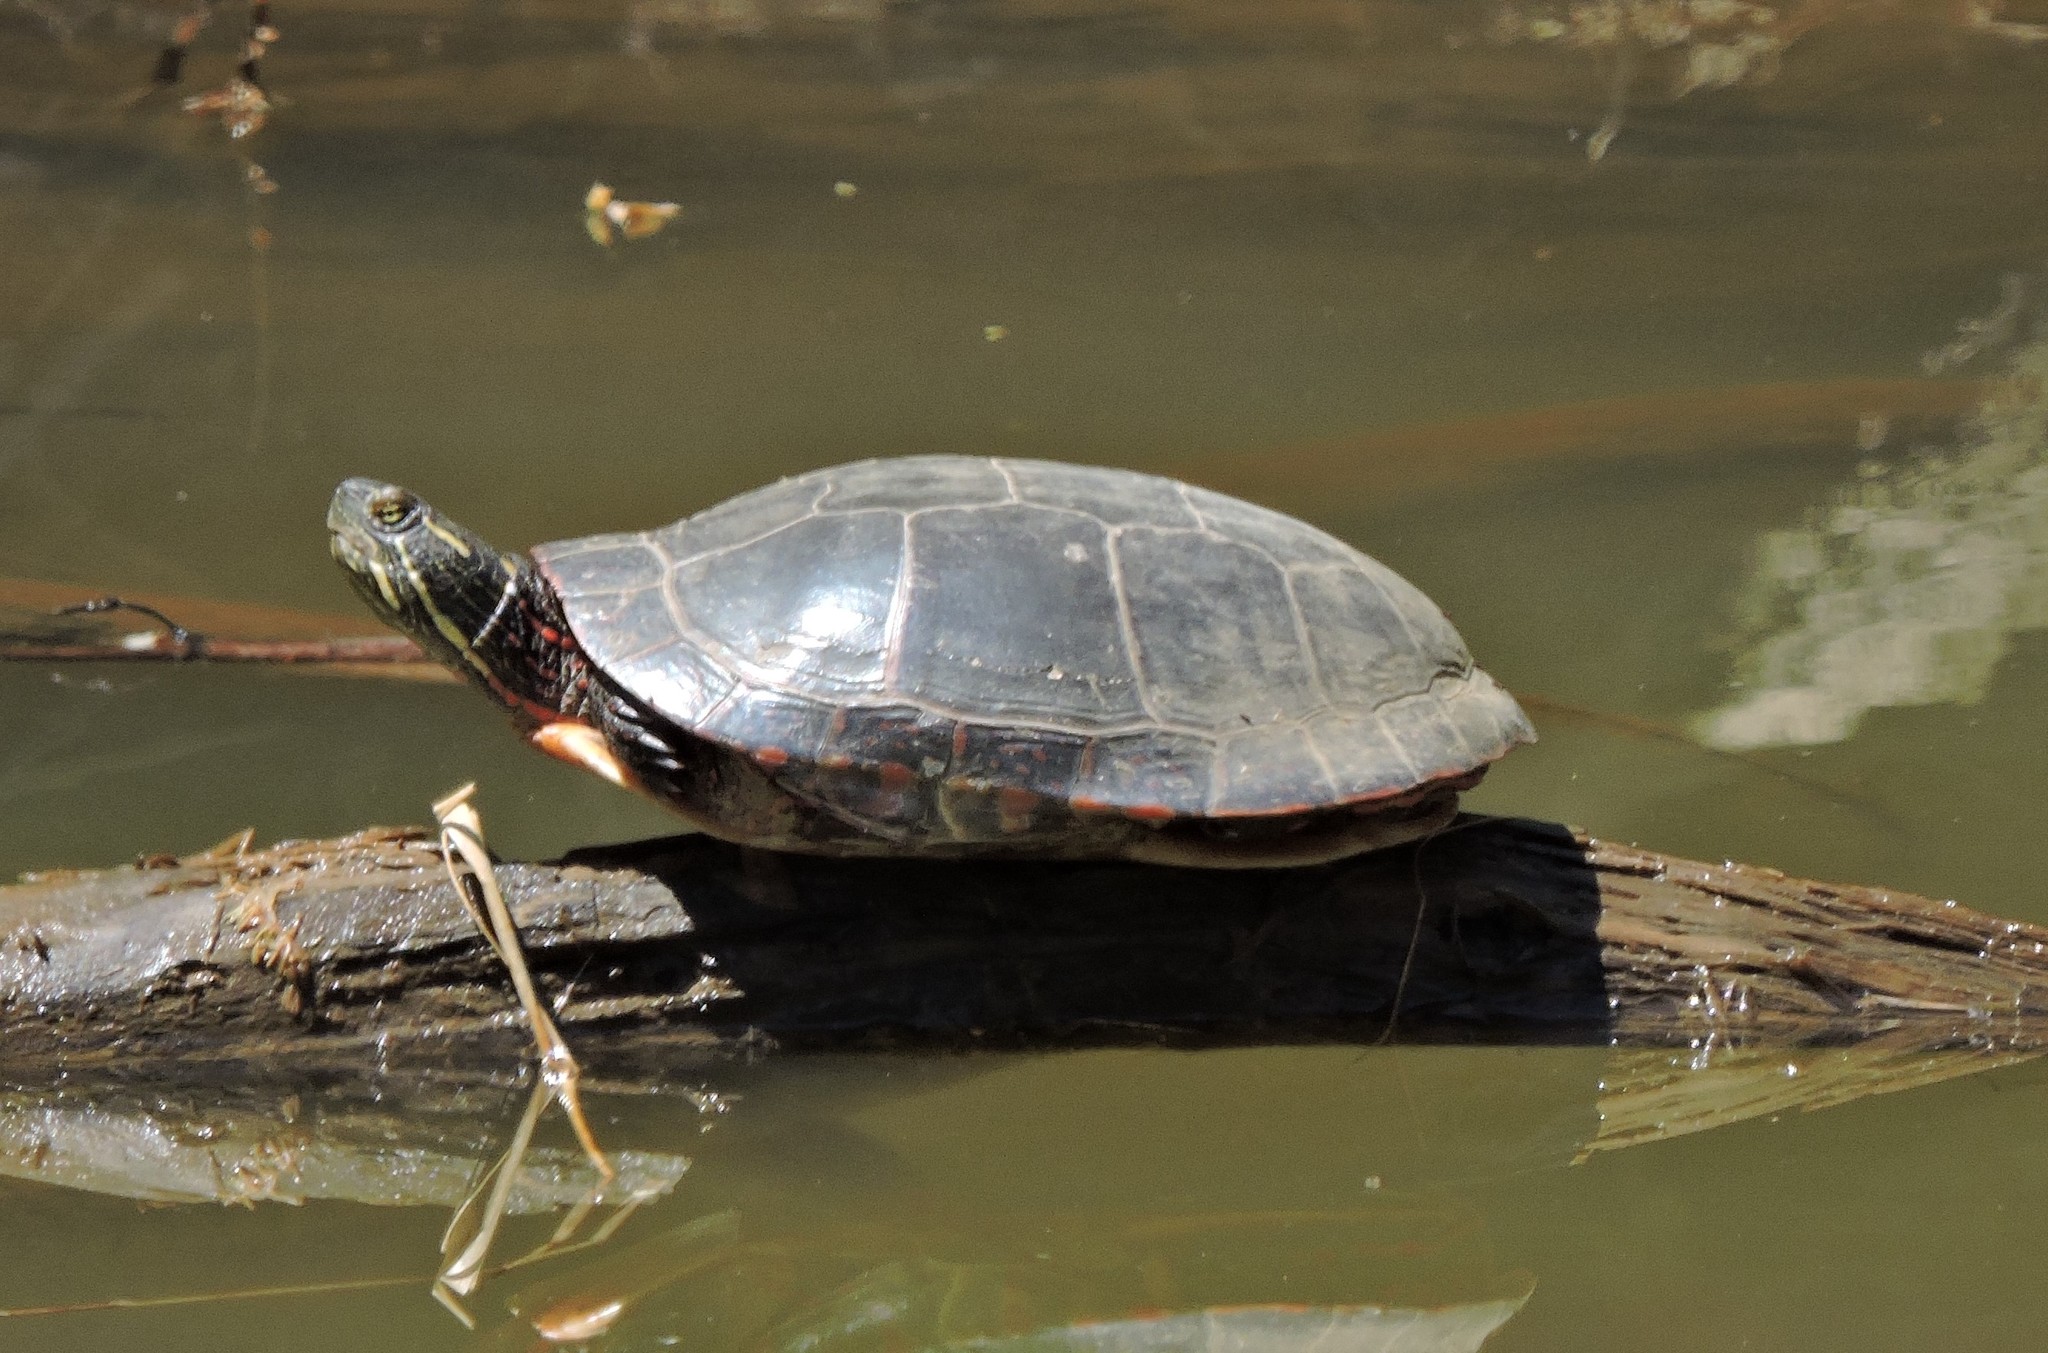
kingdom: Animalia
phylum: Chordata
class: Testudines
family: Emydidae
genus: Chrysemys
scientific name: Chrysemys picta
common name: Painted turtle
